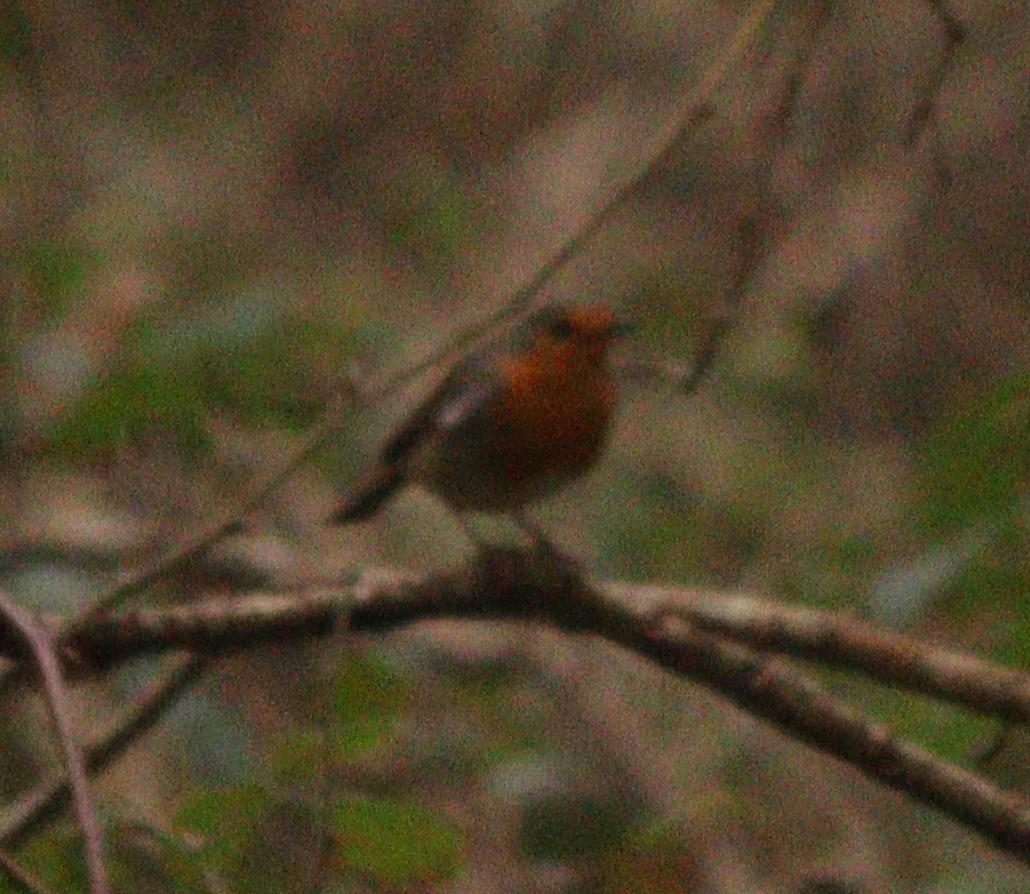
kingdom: Animalia
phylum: Chordata
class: Aves
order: Passeriformes
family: Muscicapidae
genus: Erithacus
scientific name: Erithacus rubecula
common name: European robin
